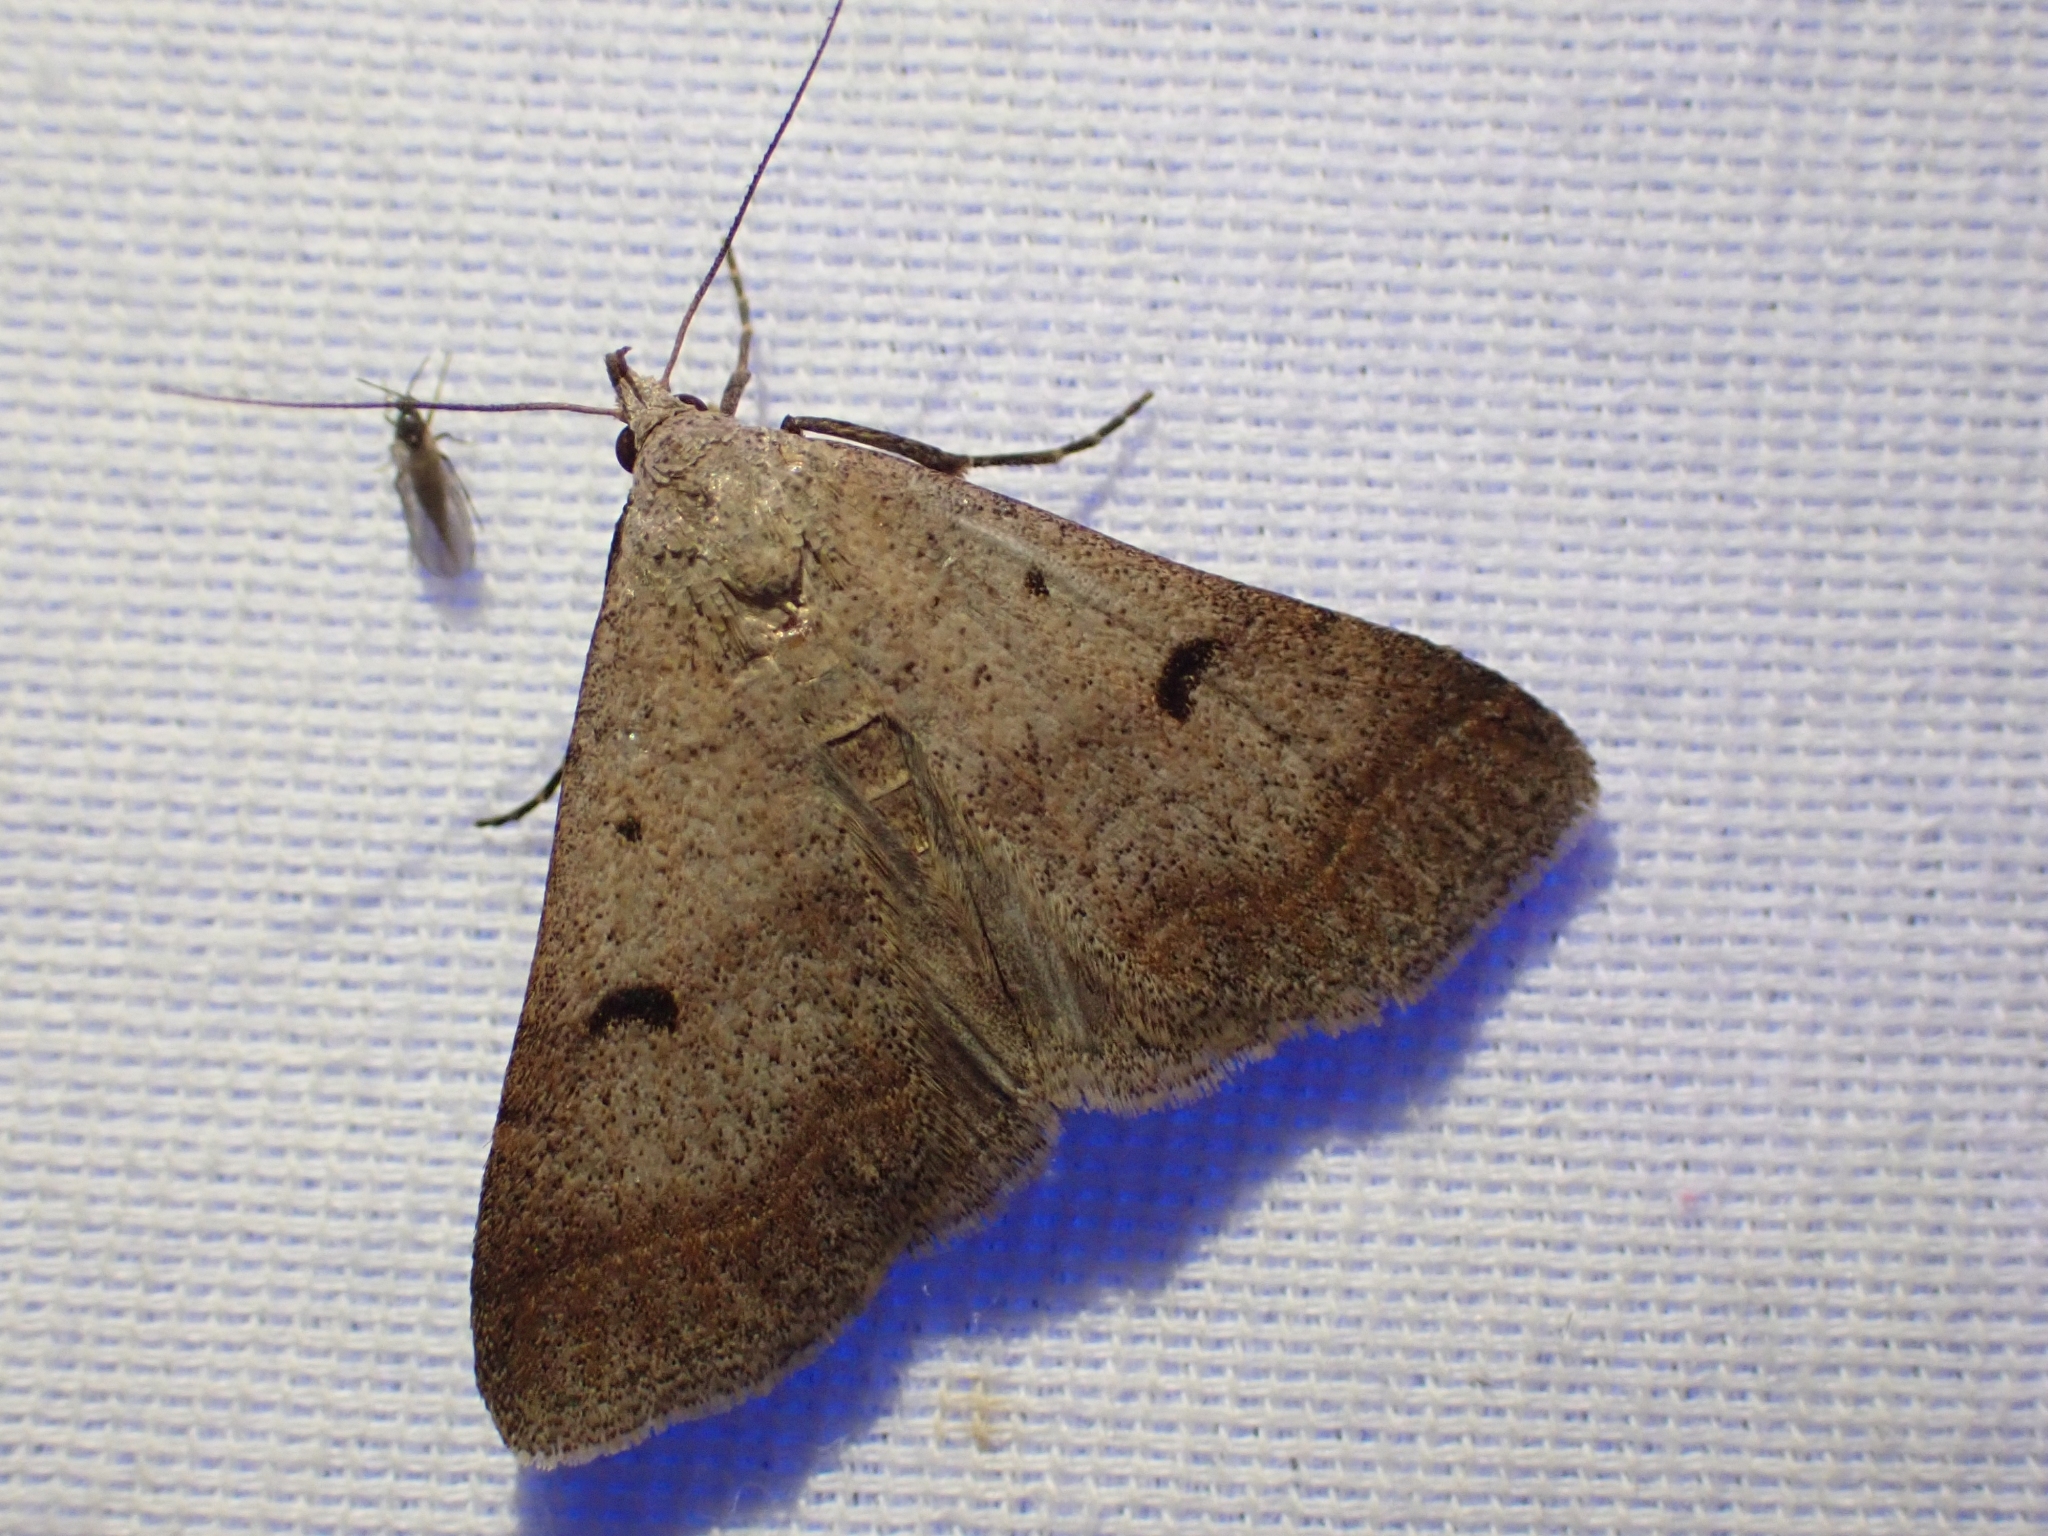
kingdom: Animalia
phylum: Arthropoda
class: Insecta
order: Lepidoptera
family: Erebidae
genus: Bleptina
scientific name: Bleptina caradrinalis
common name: Bent-winged owlet
